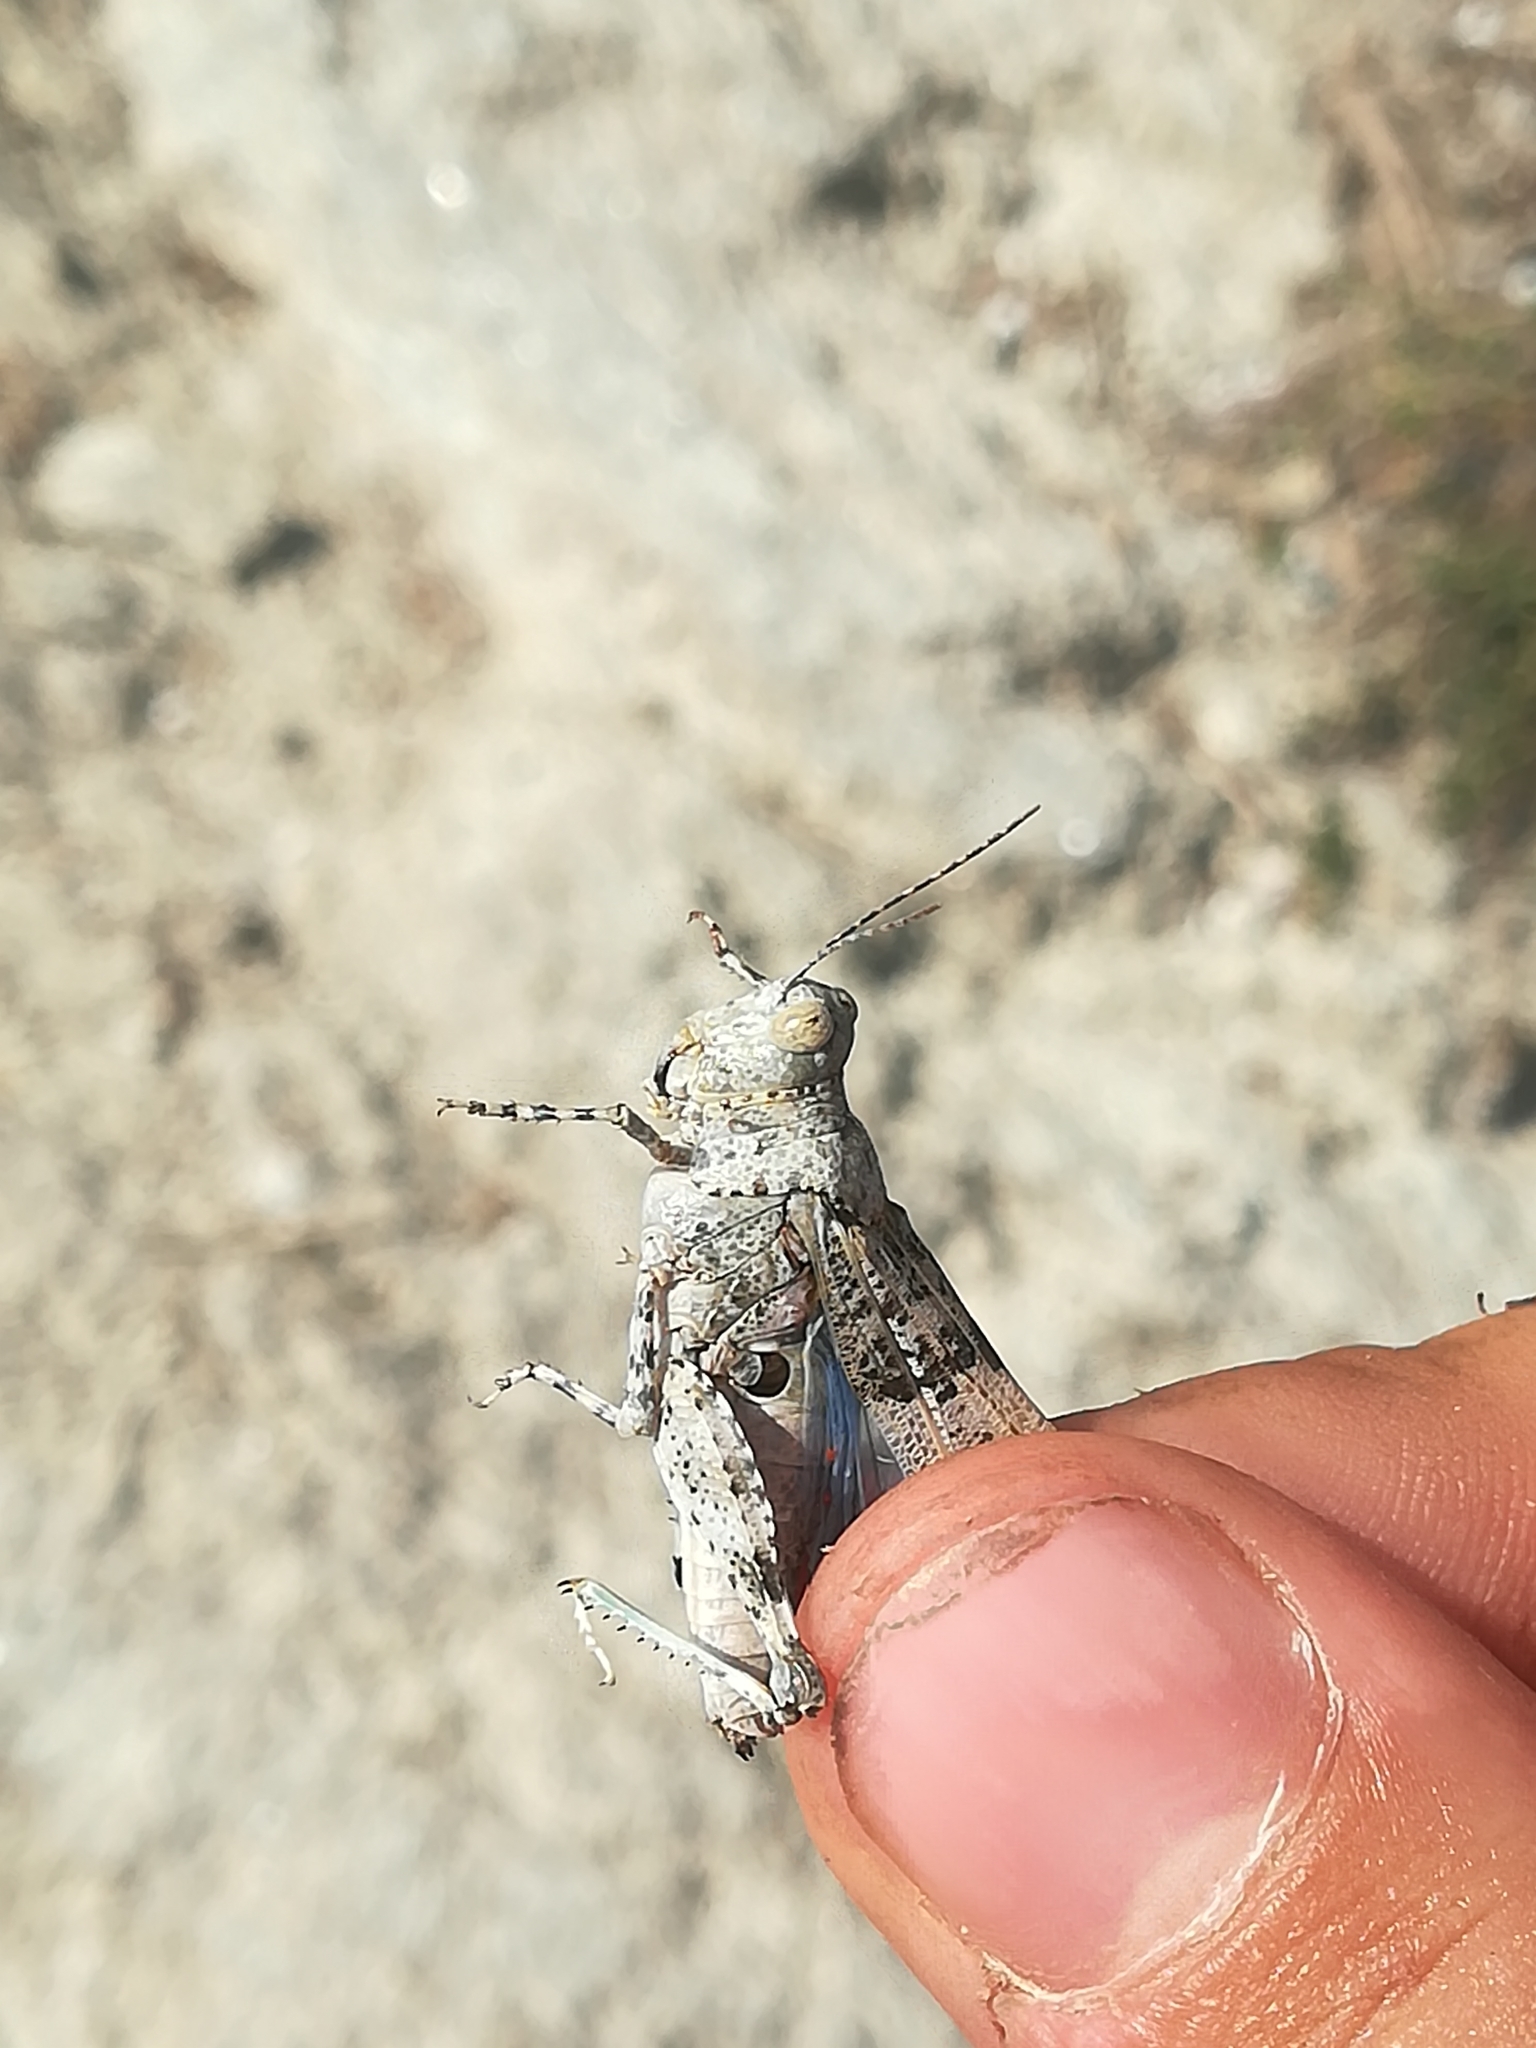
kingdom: Animalia
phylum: Arthropoda
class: Insecta
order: Orthoptera
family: Acrididae
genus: Sphingonotus
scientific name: Sphingonotus caerulans
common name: Blue-winged locust
